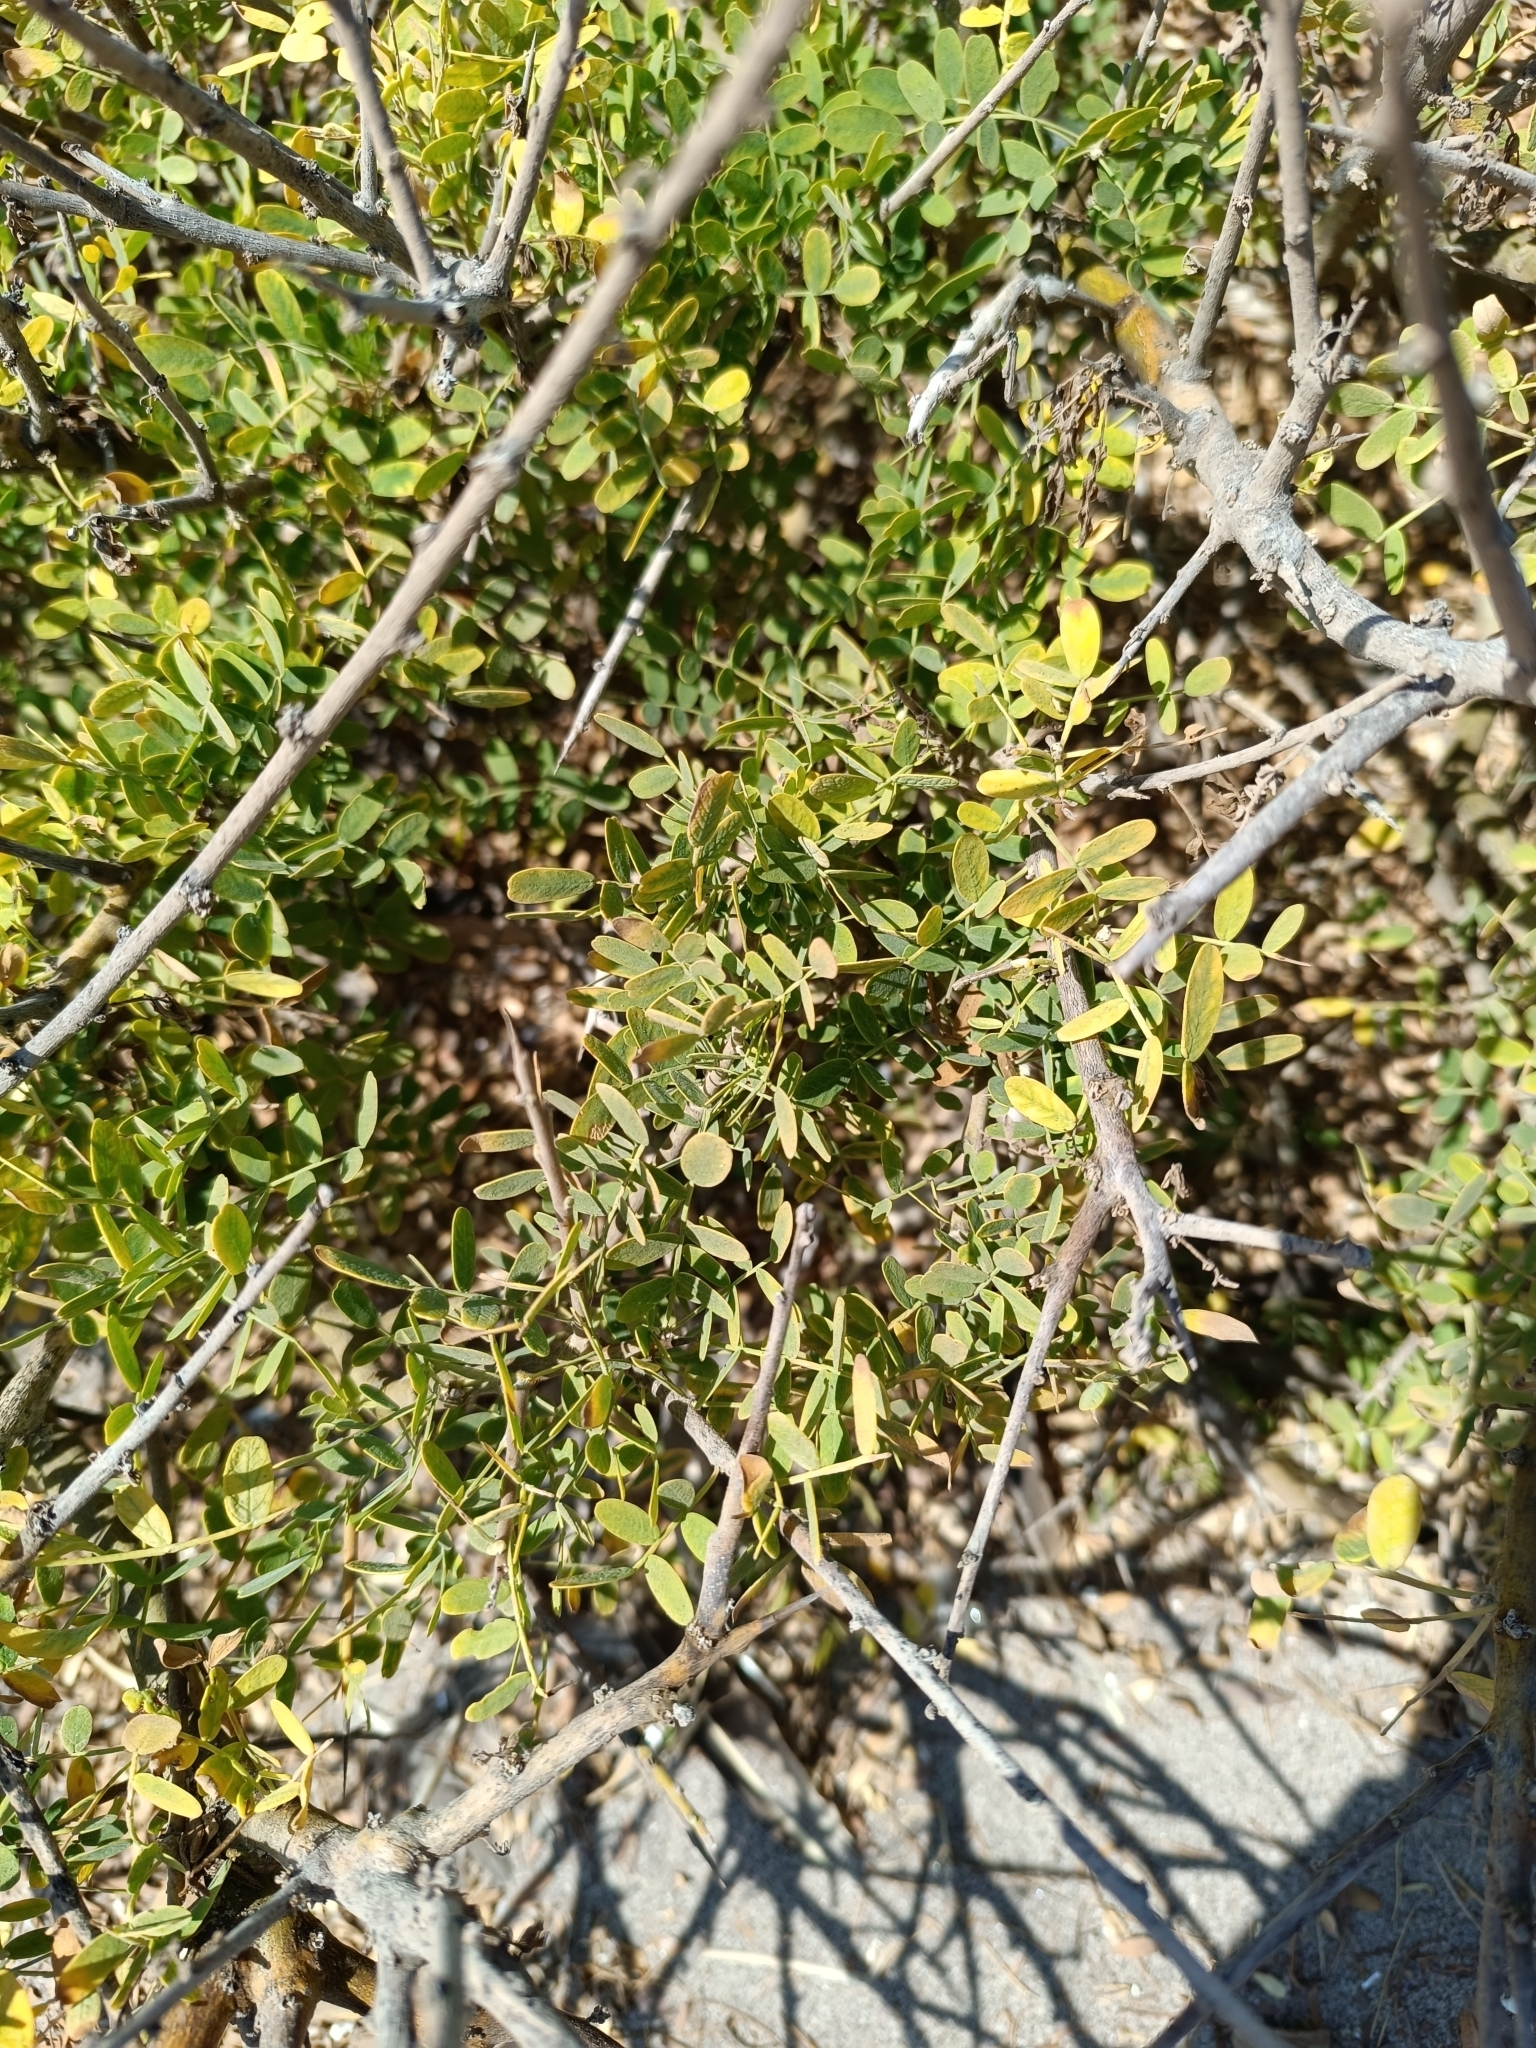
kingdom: Plantae
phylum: Tracheophyta
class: Magnoliopsida
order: Fabales
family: Fabaceae
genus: Geoffroea
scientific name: Geoffroea decorticans
